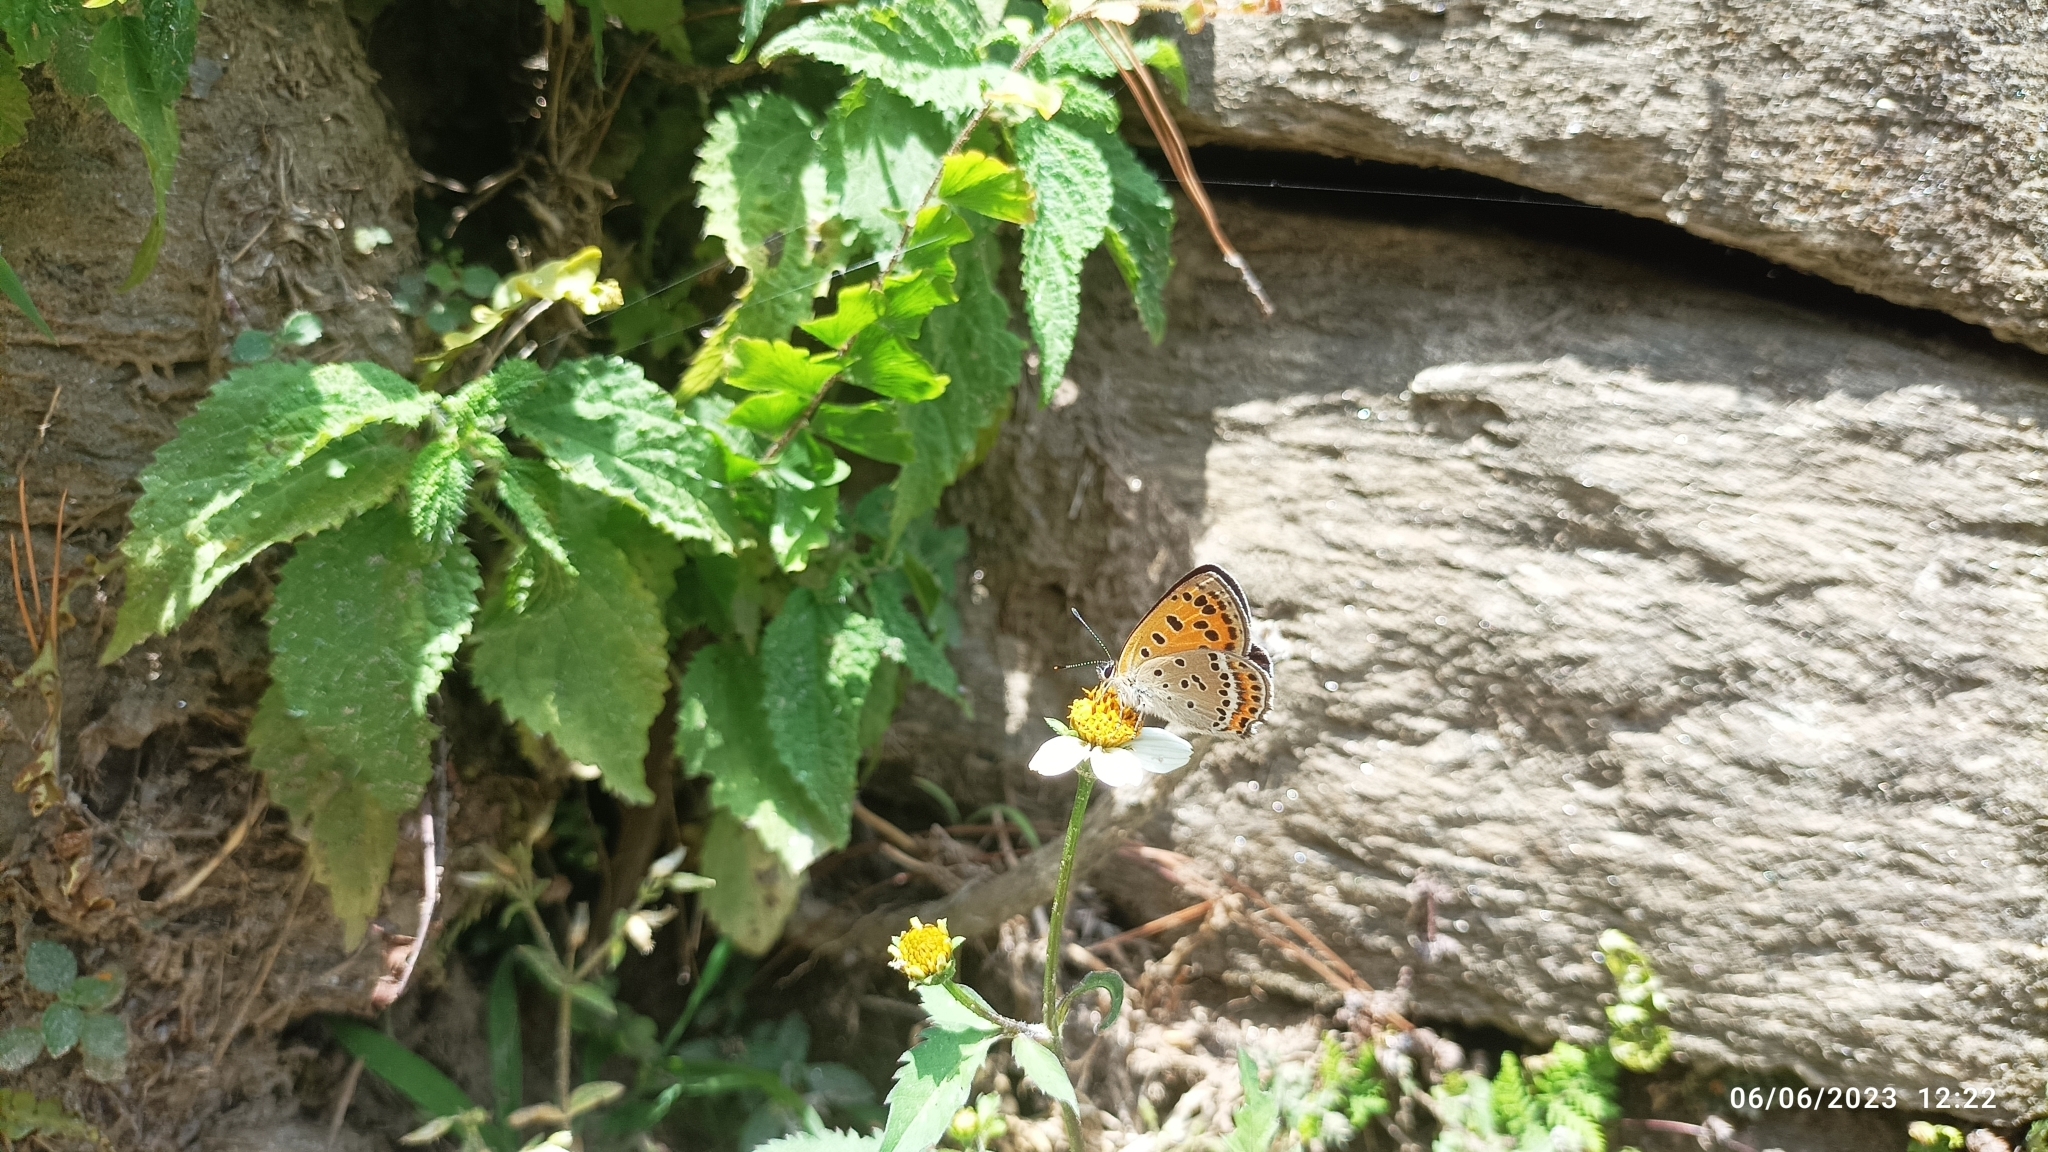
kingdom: Animalia
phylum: Arthropoda
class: Insecta
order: Lepidoptera
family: Lycaenidae
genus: Lycaena
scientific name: Lycaena panava
